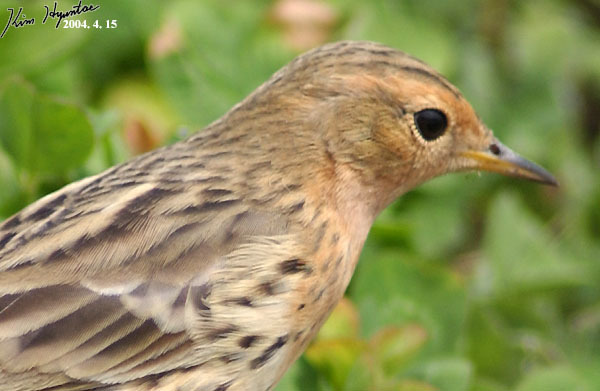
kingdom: Animalia
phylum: Chordata
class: Aves
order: Passeriformes
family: Motacillidae
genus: Anthus
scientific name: Anthus cervinus
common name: Red-throated pipit
